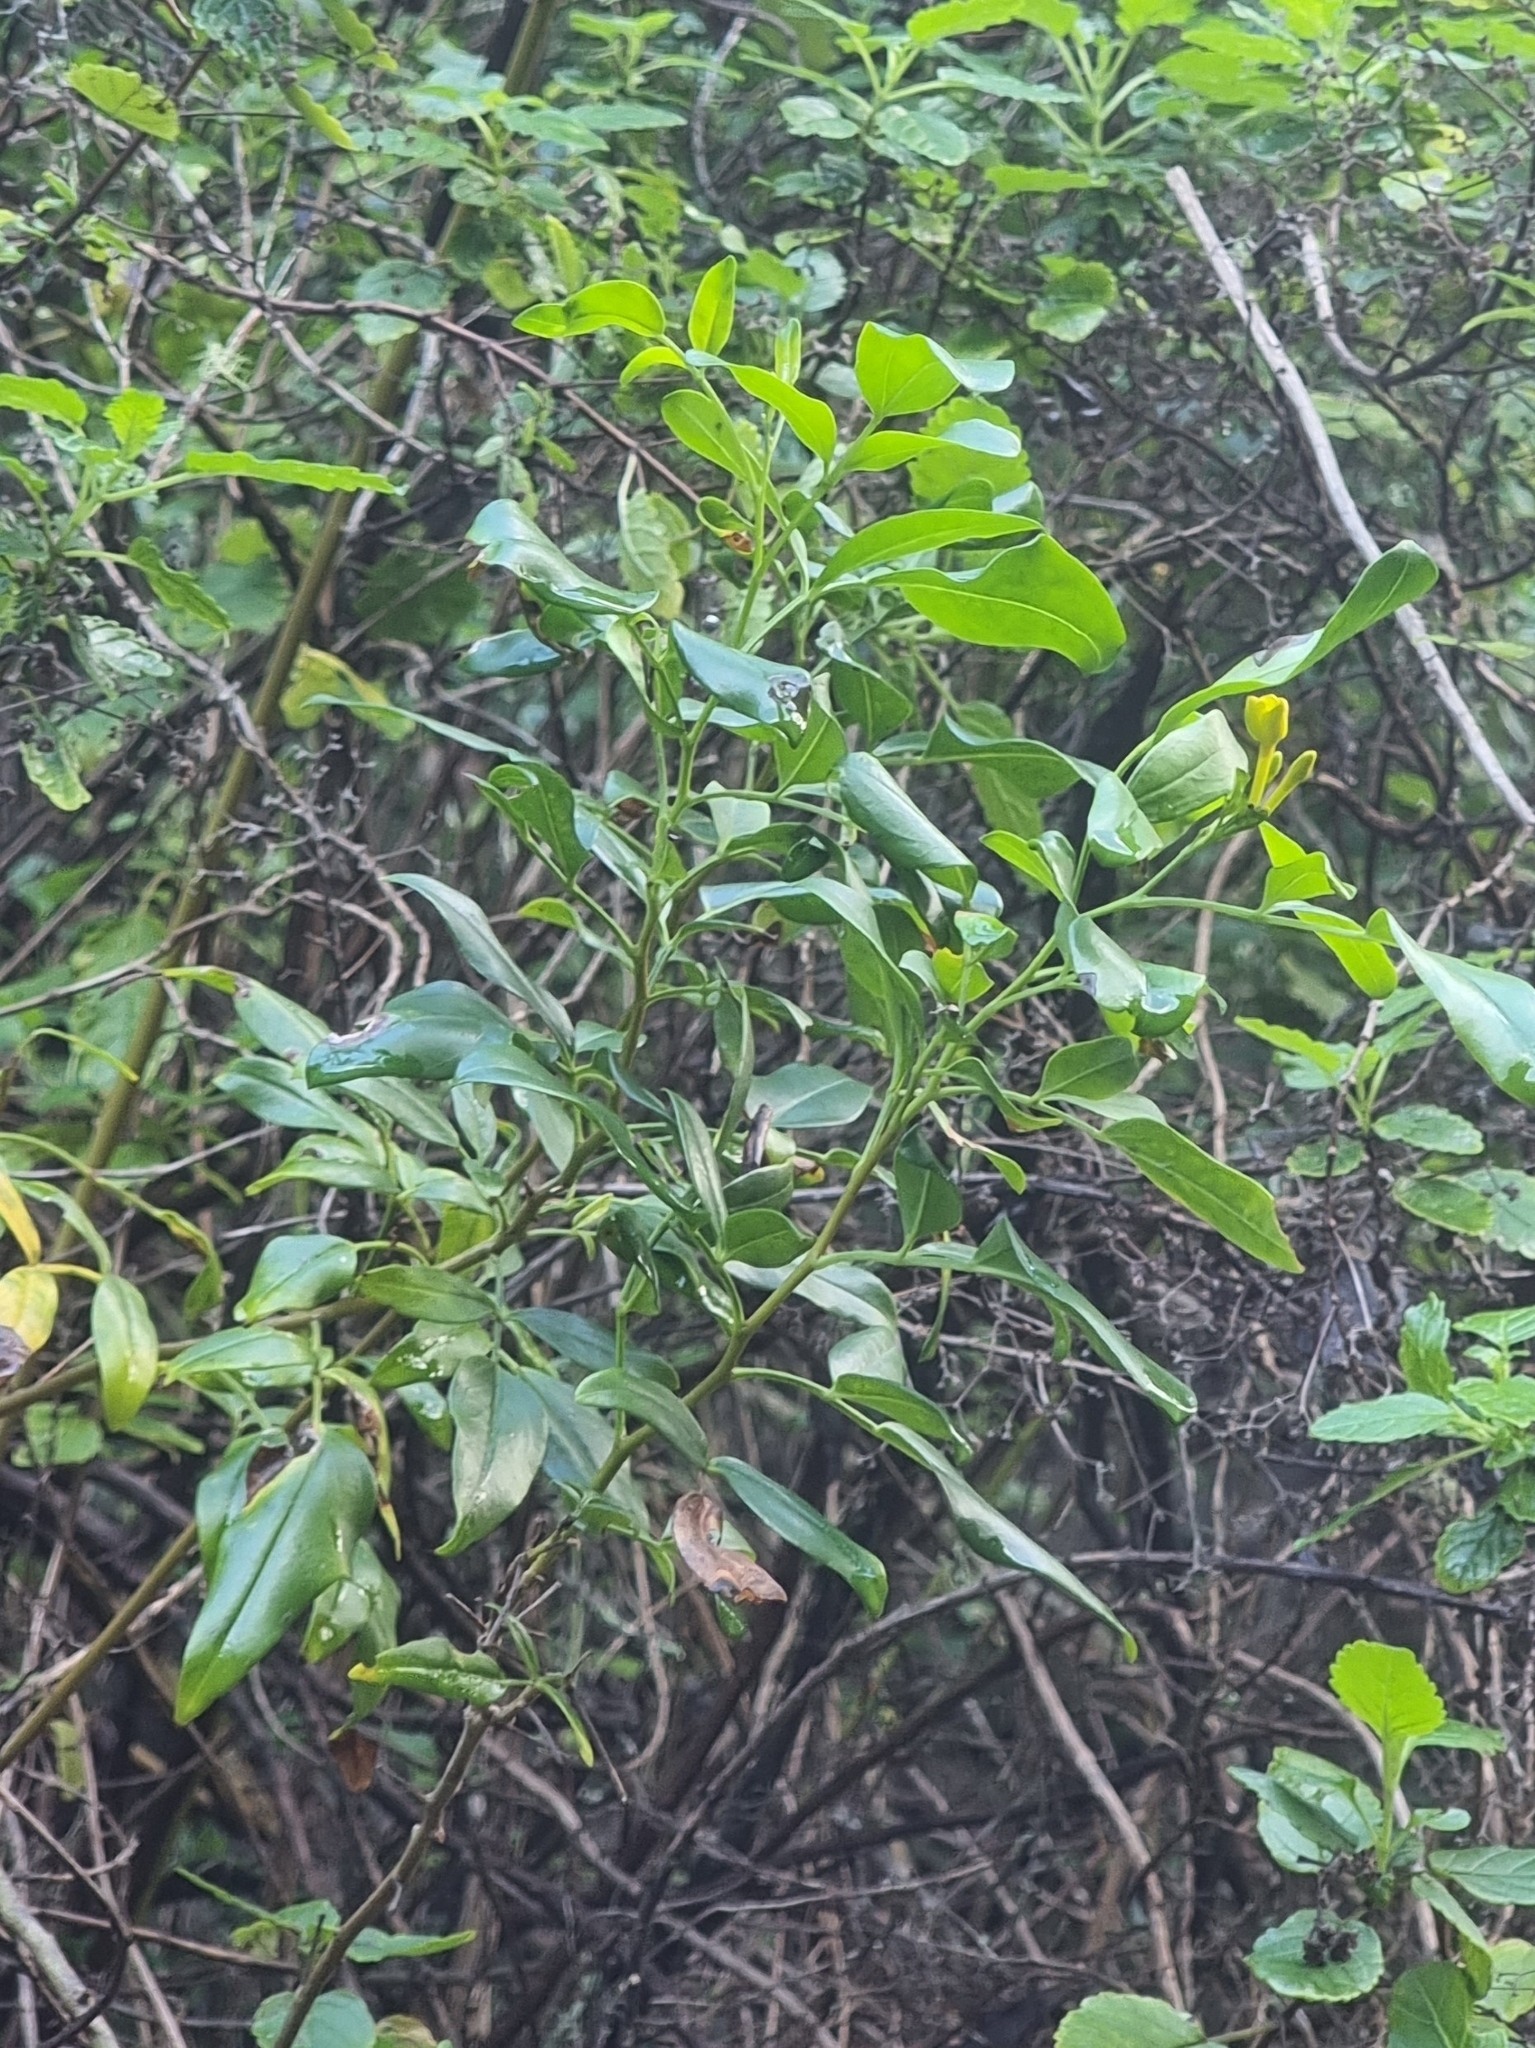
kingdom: Plantae
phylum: Tracheophyta
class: Magnoliopsida
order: Lamiales
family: Oleaceae
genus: Chrysojasminum
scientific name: Chrysojasminum odoratissimum
